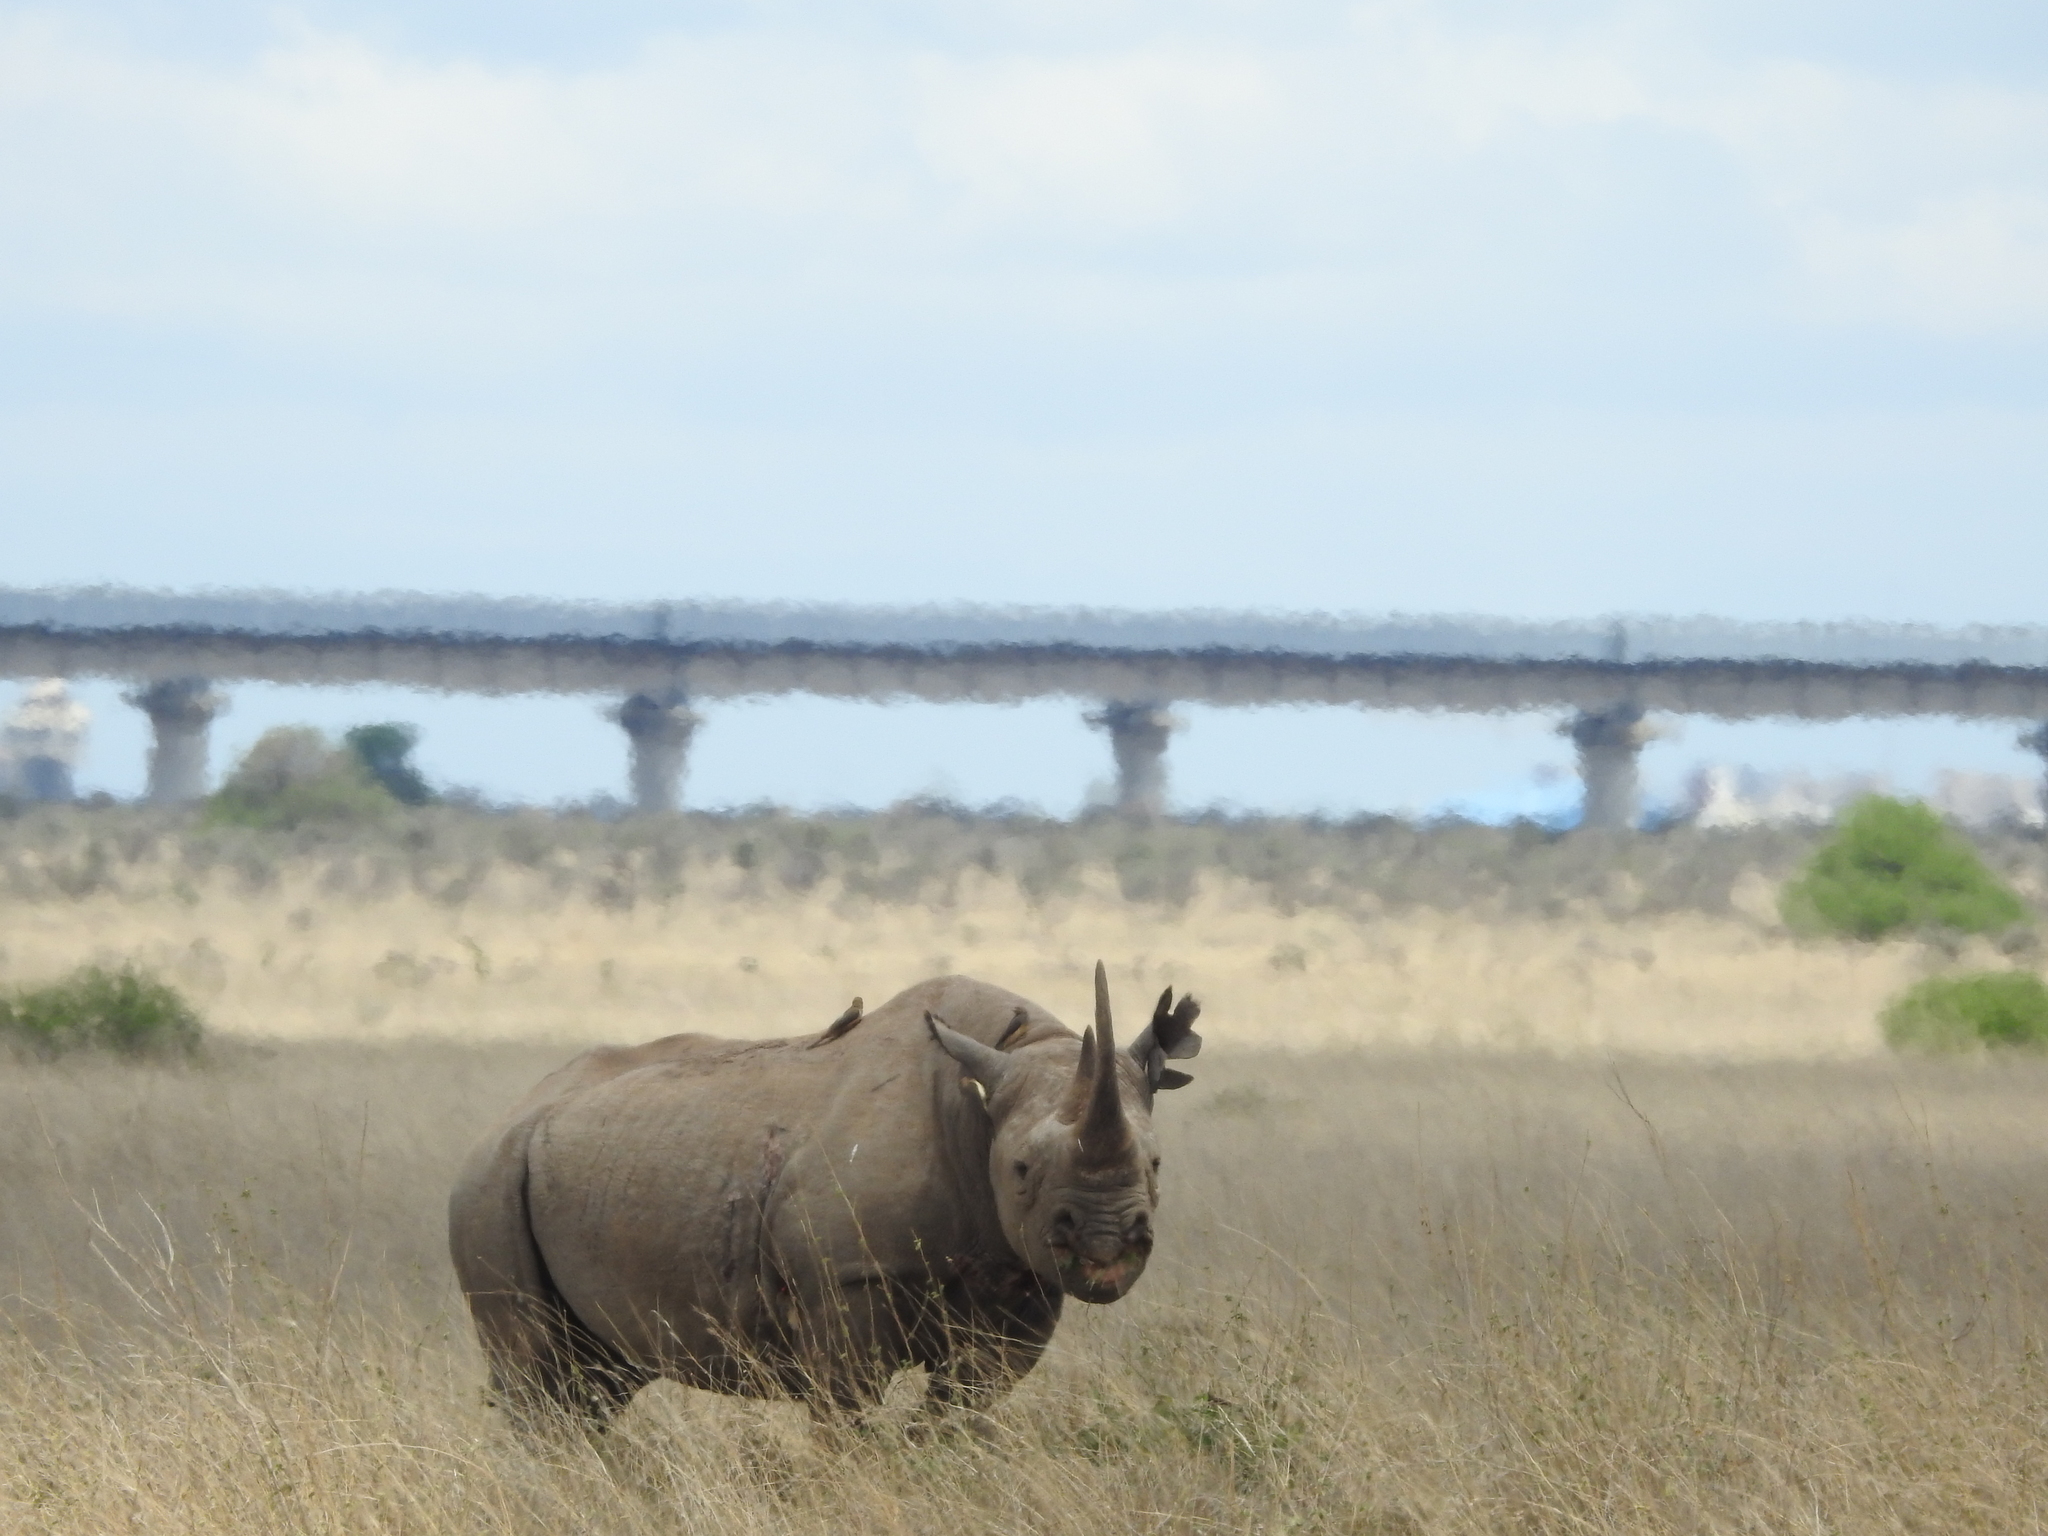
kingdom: Animalia
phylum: Chordata
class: Mammalia
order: Perissodactyla
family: Rhinocerotidae
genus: Diceros
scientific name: Diceros bicornis
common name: Black rhinoceros
